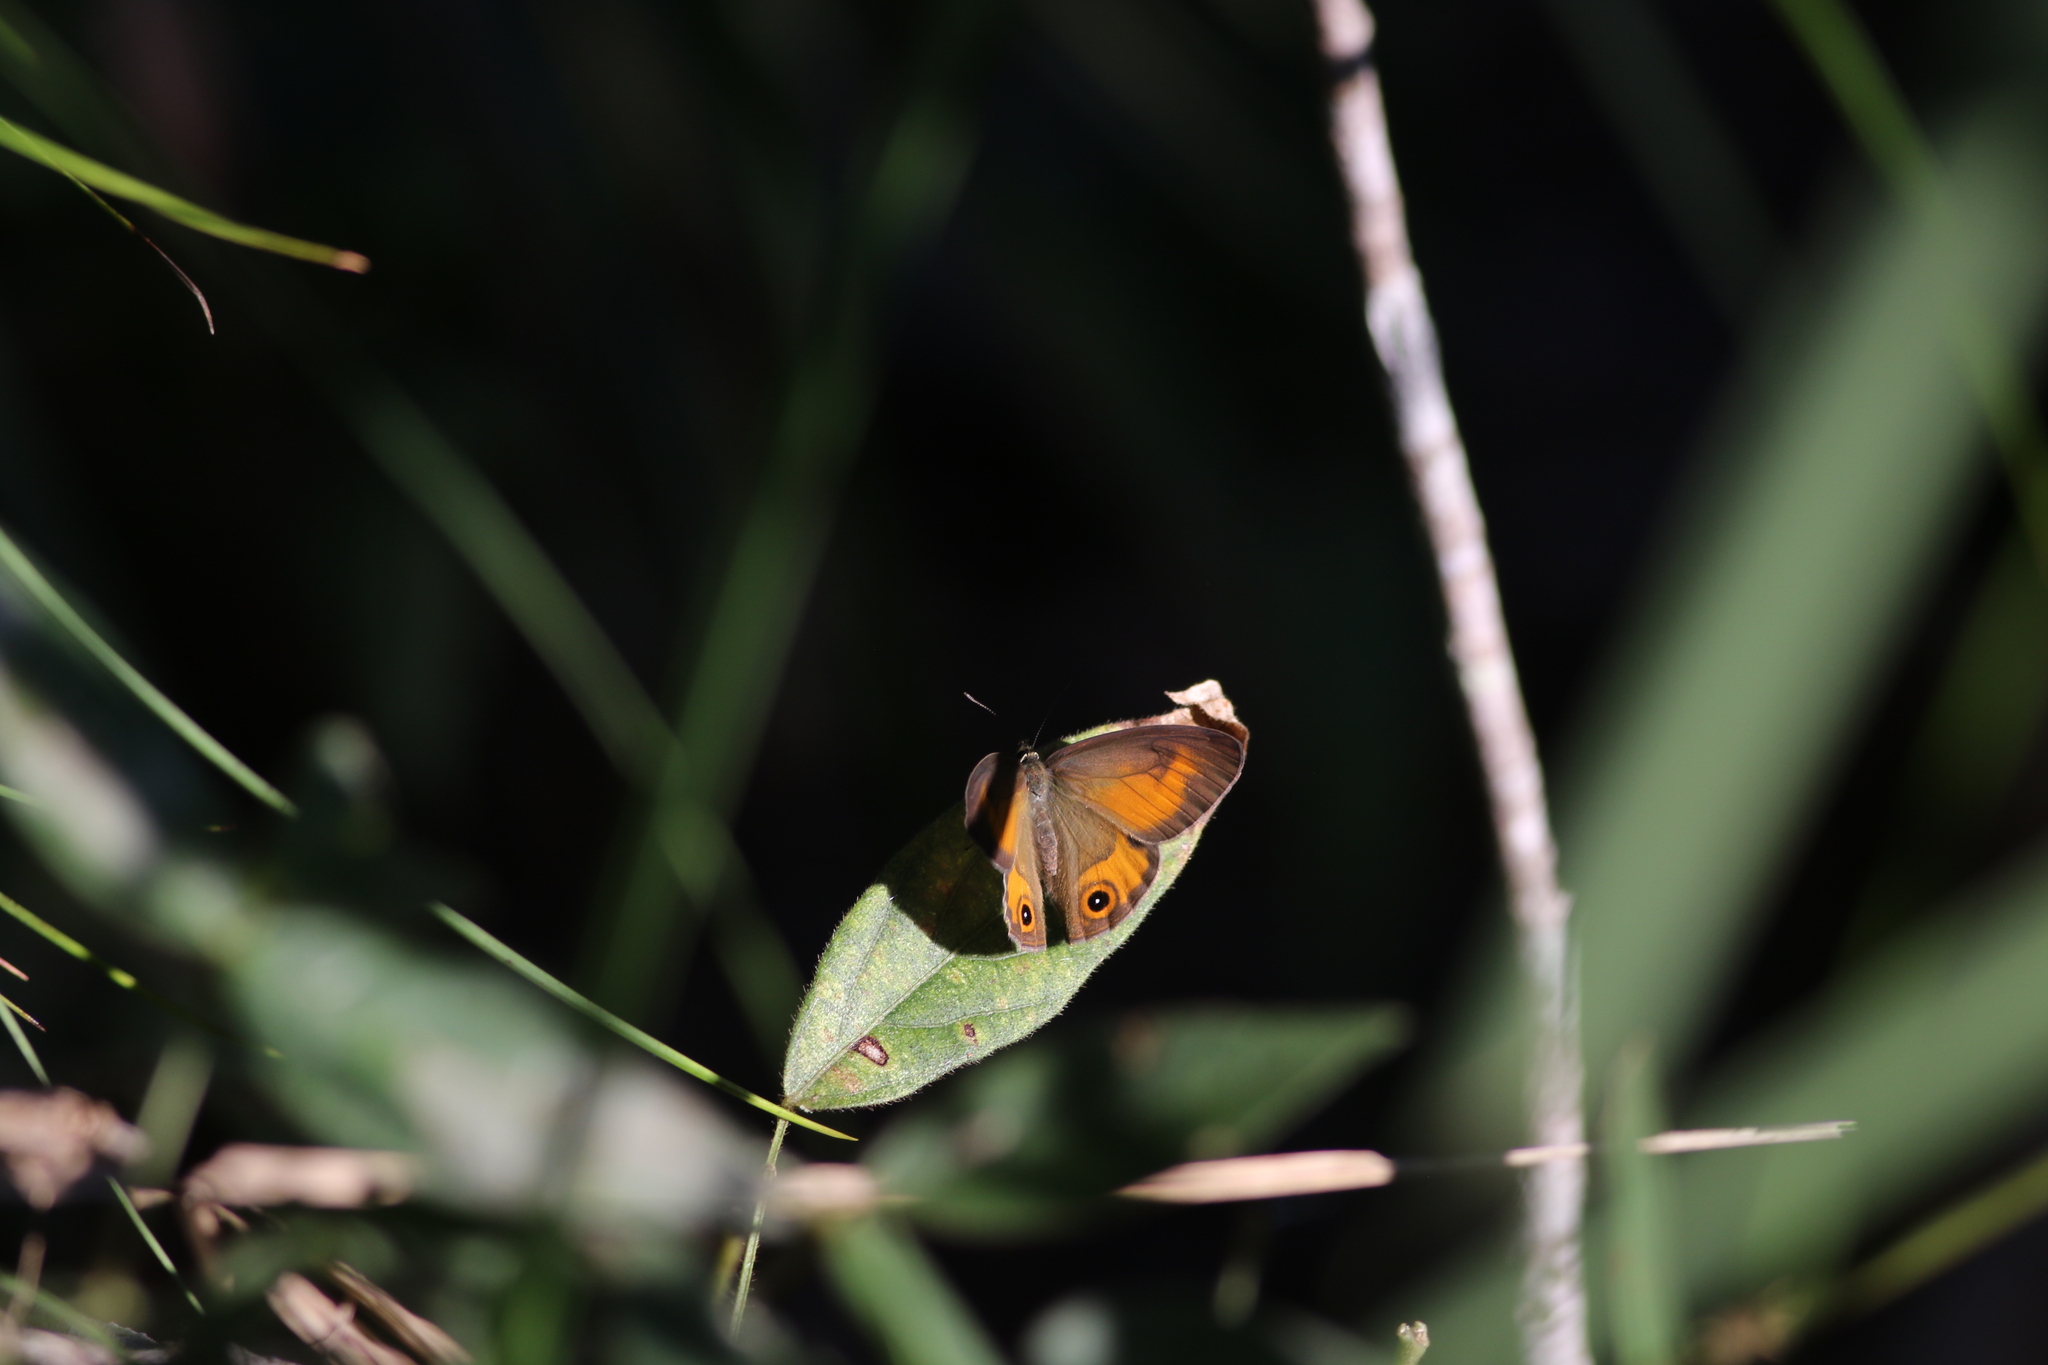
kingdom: Animalia
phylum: Arthropoda
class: Insecta
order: Lepidoptera
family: Nymphalidae
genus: Hypocysta
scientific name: Hypocysta irius
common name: Orange-streaked ringlet
